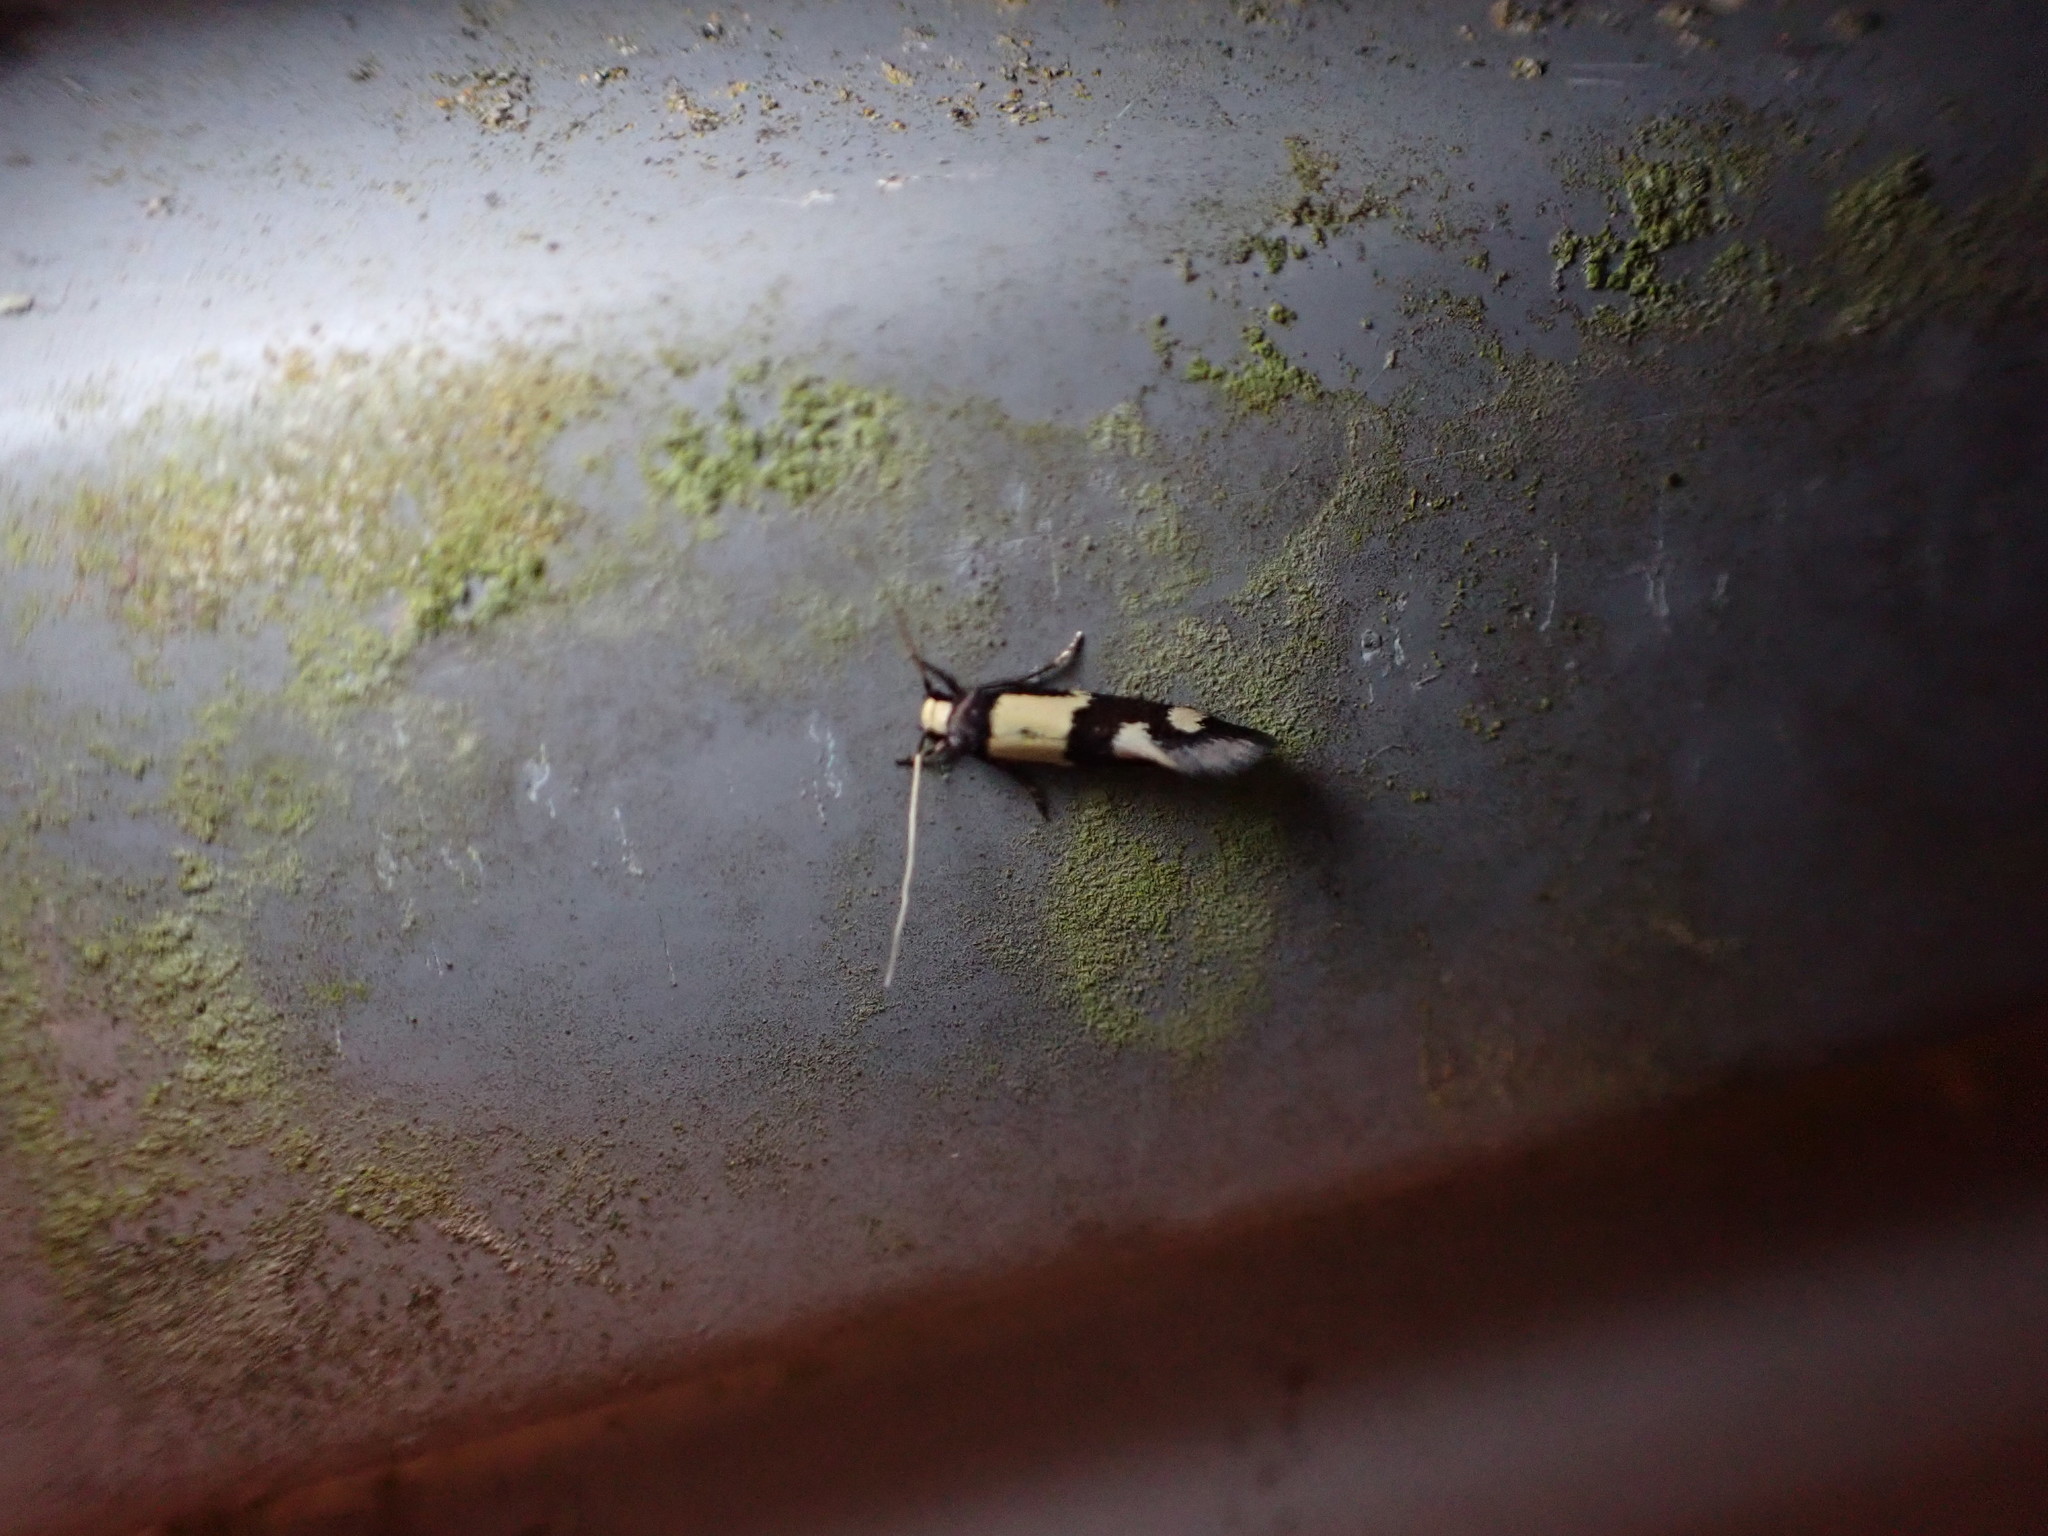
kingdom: Animalia
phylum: Arthropoda
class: Insecta
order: Lepidoptera
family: Tineidae
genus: Opogona
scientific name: Opogona comptella
